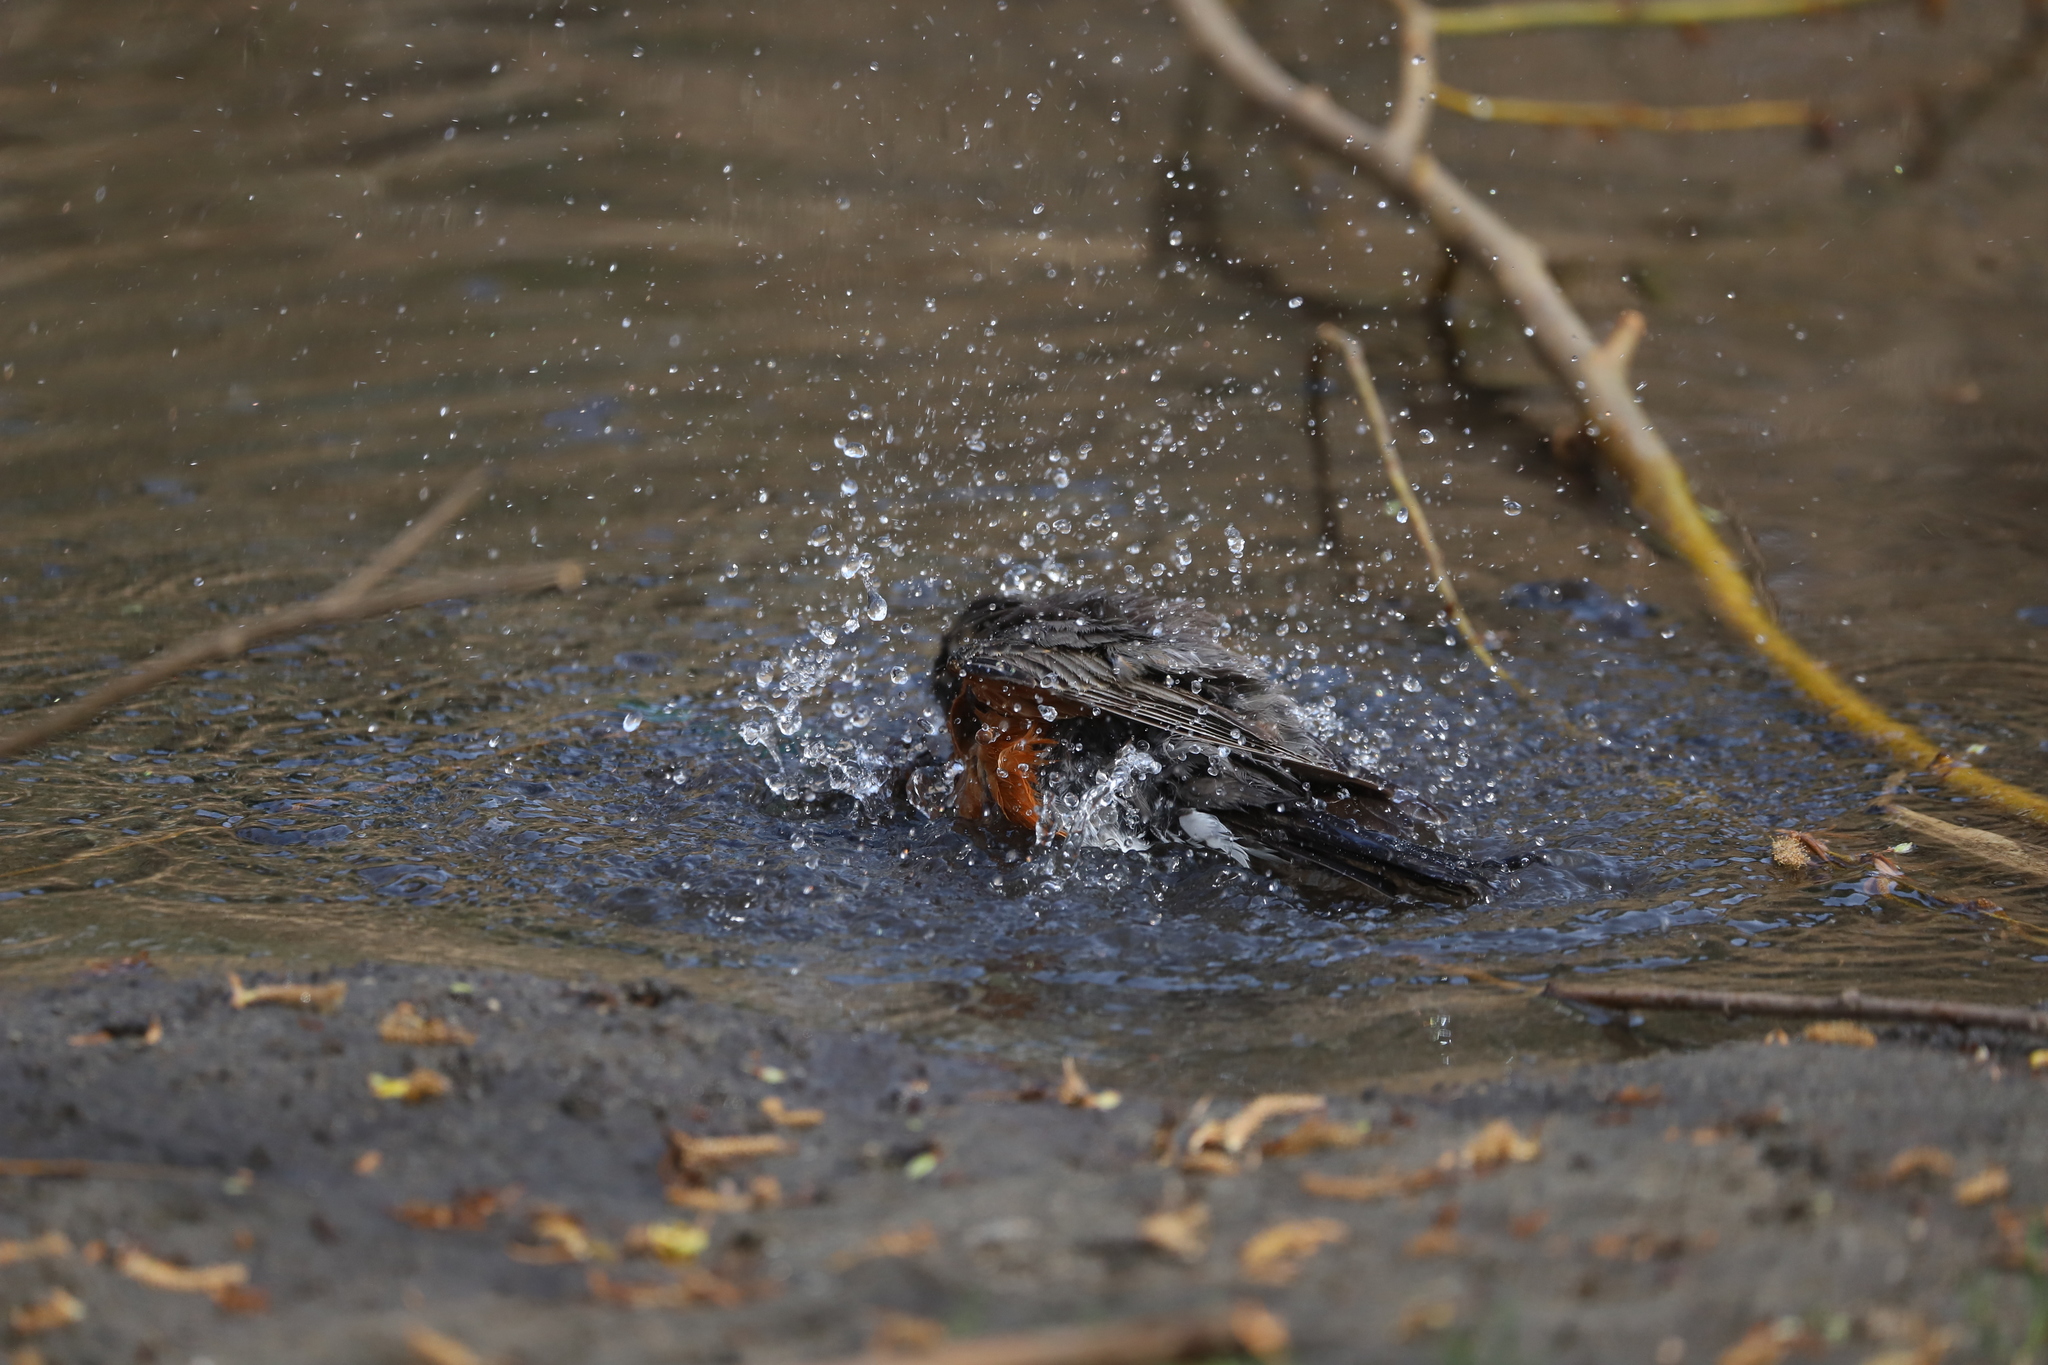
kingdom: Animalia
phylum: Chordata
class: Aves
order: Passeriformes
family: Turdidae
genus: Turdus
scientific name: Turdus migratorius
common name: American robin
